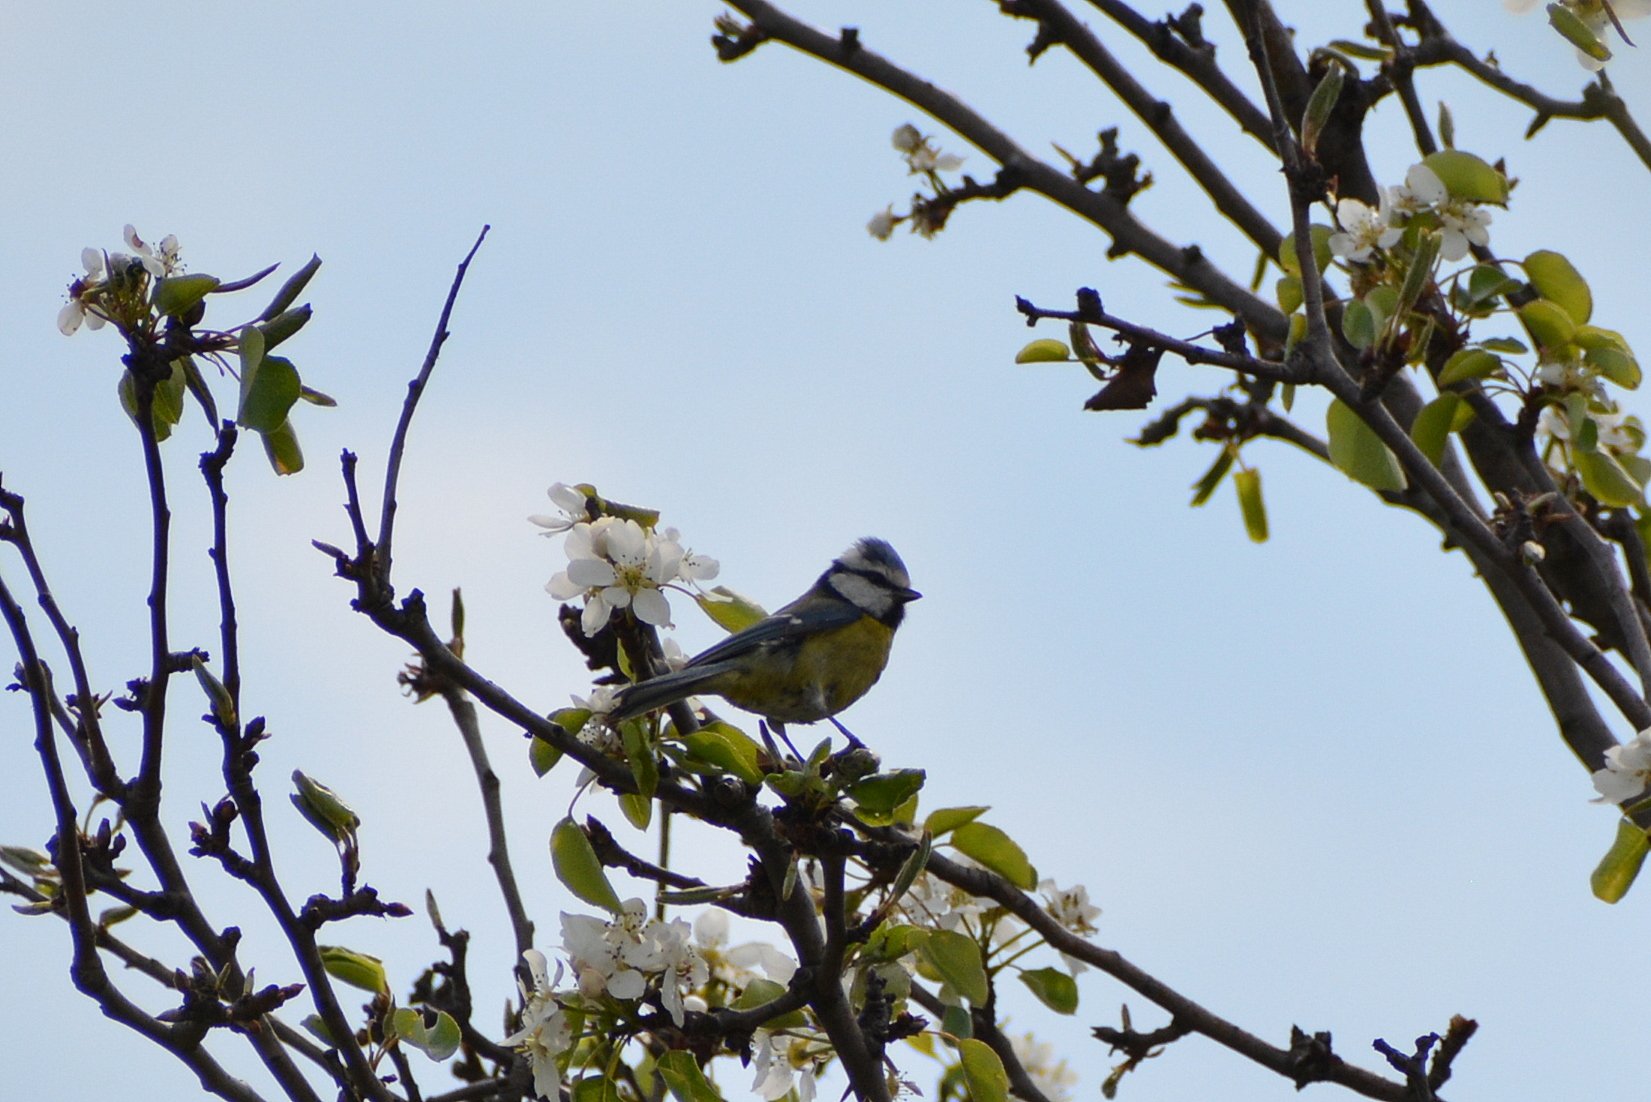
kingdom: Animalia
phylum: Chordata
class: Aves
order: Passeriformes
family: Paridae
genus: Cyanistes
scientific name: Cyanistes caeruleus
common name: Eurasian blue tit
